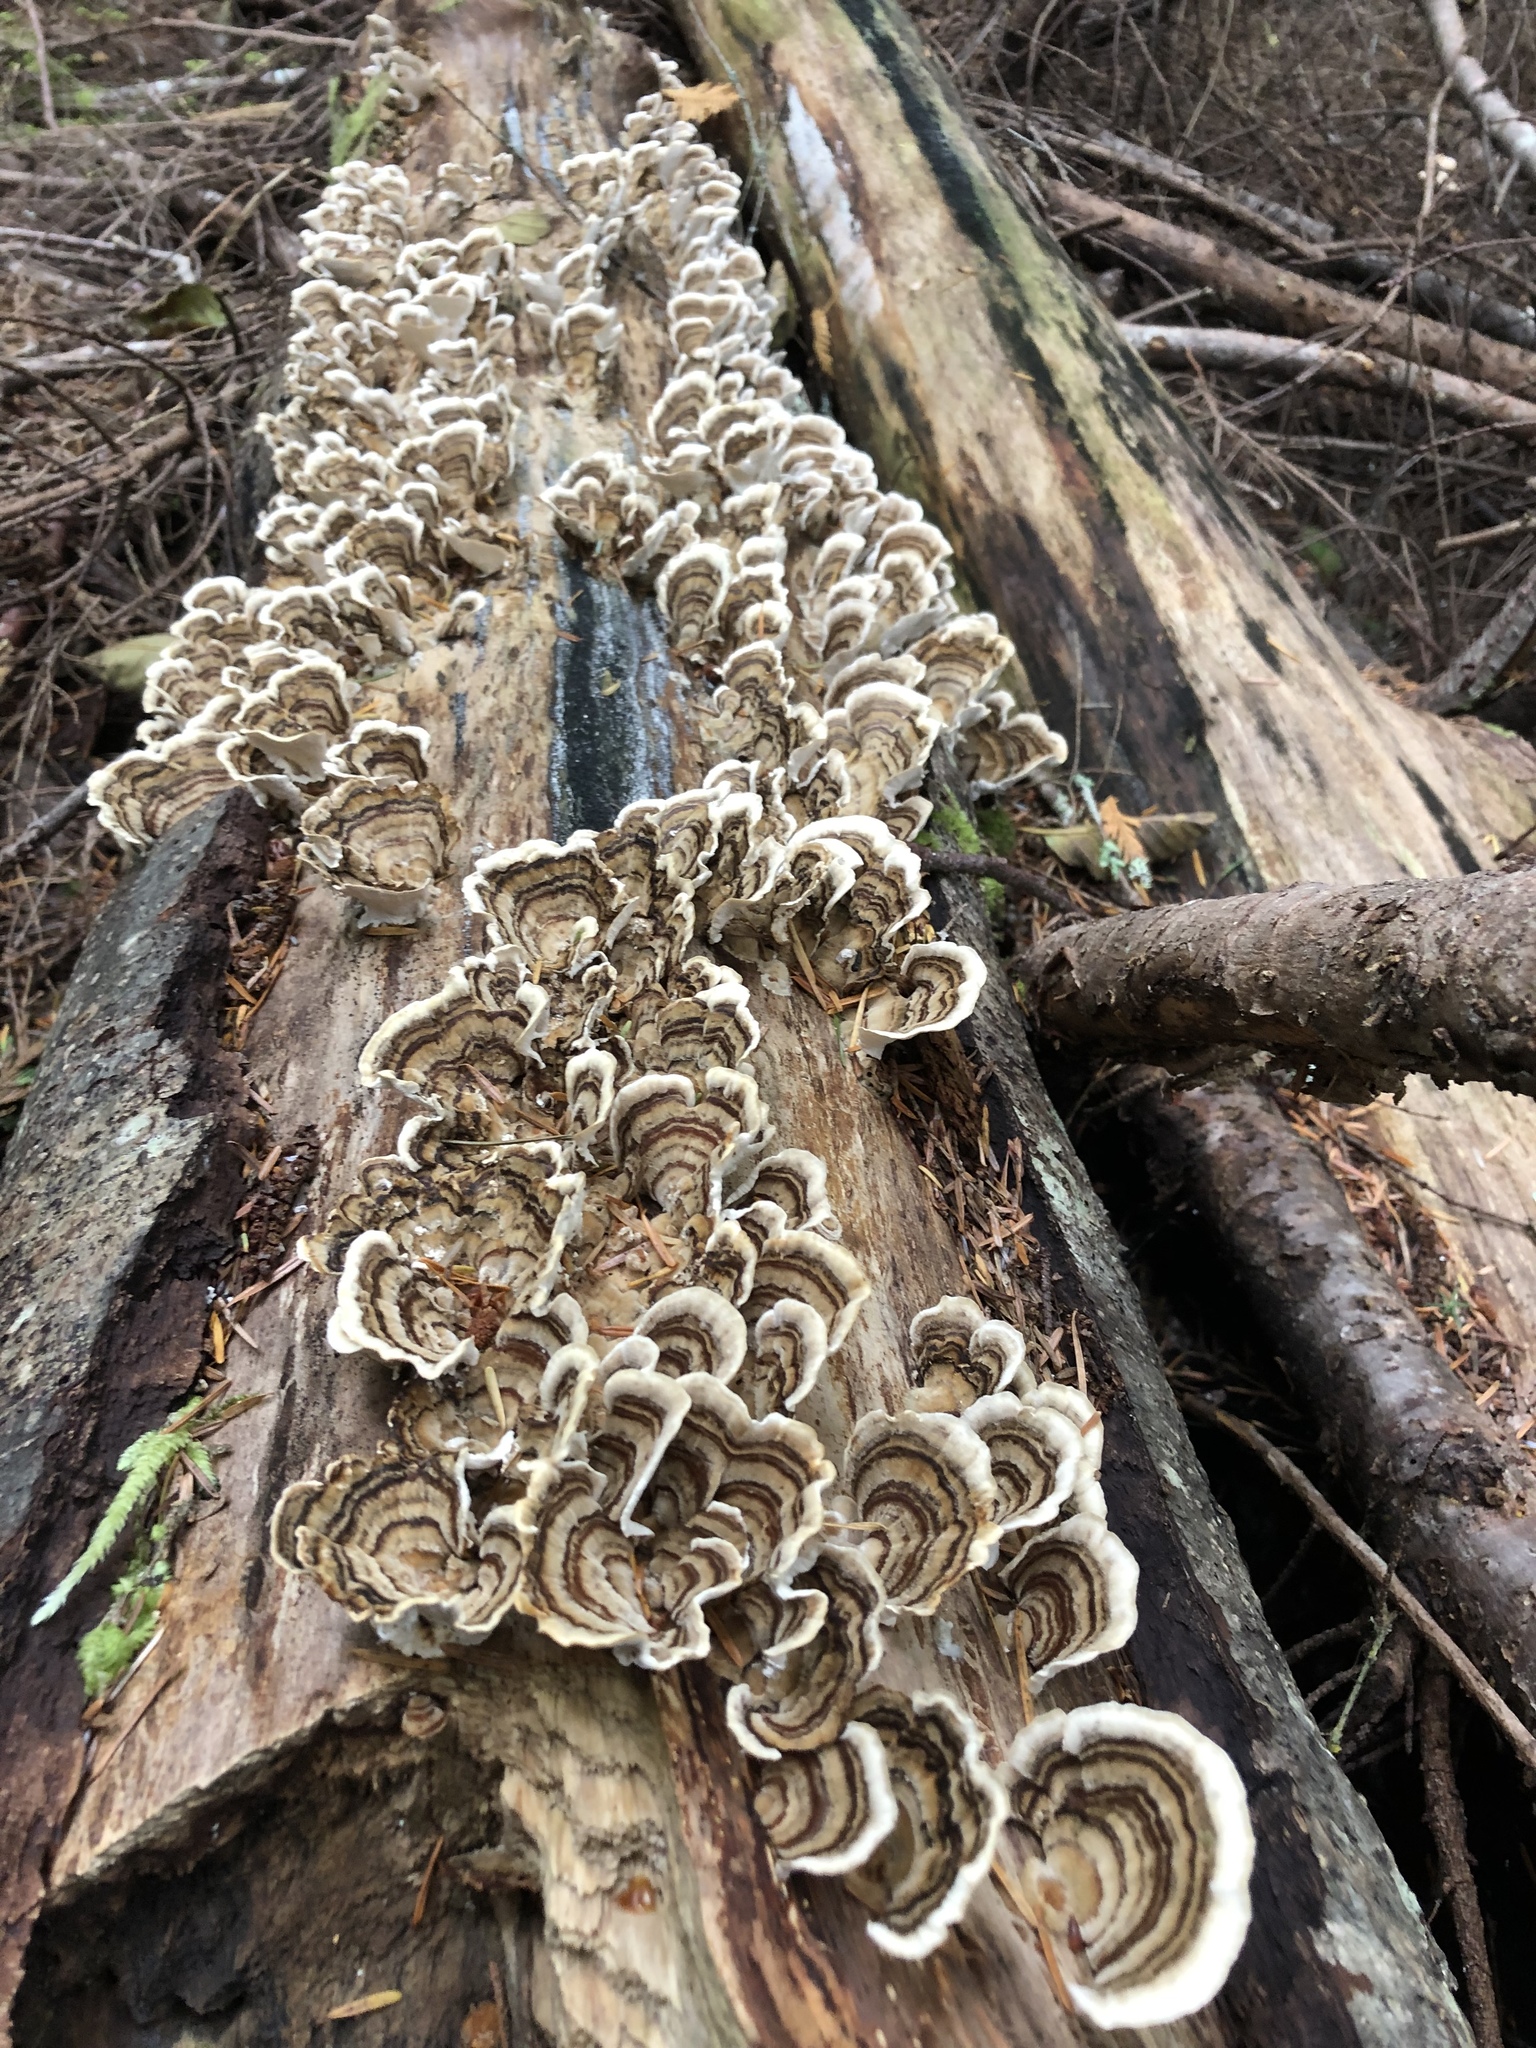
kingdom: Fungi
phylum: Basidiomycota
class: Agaricomycetes
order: Polyporales
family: Polyporaceae
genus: Trametes
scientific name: Trametes versicolor
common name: Turkeytail
